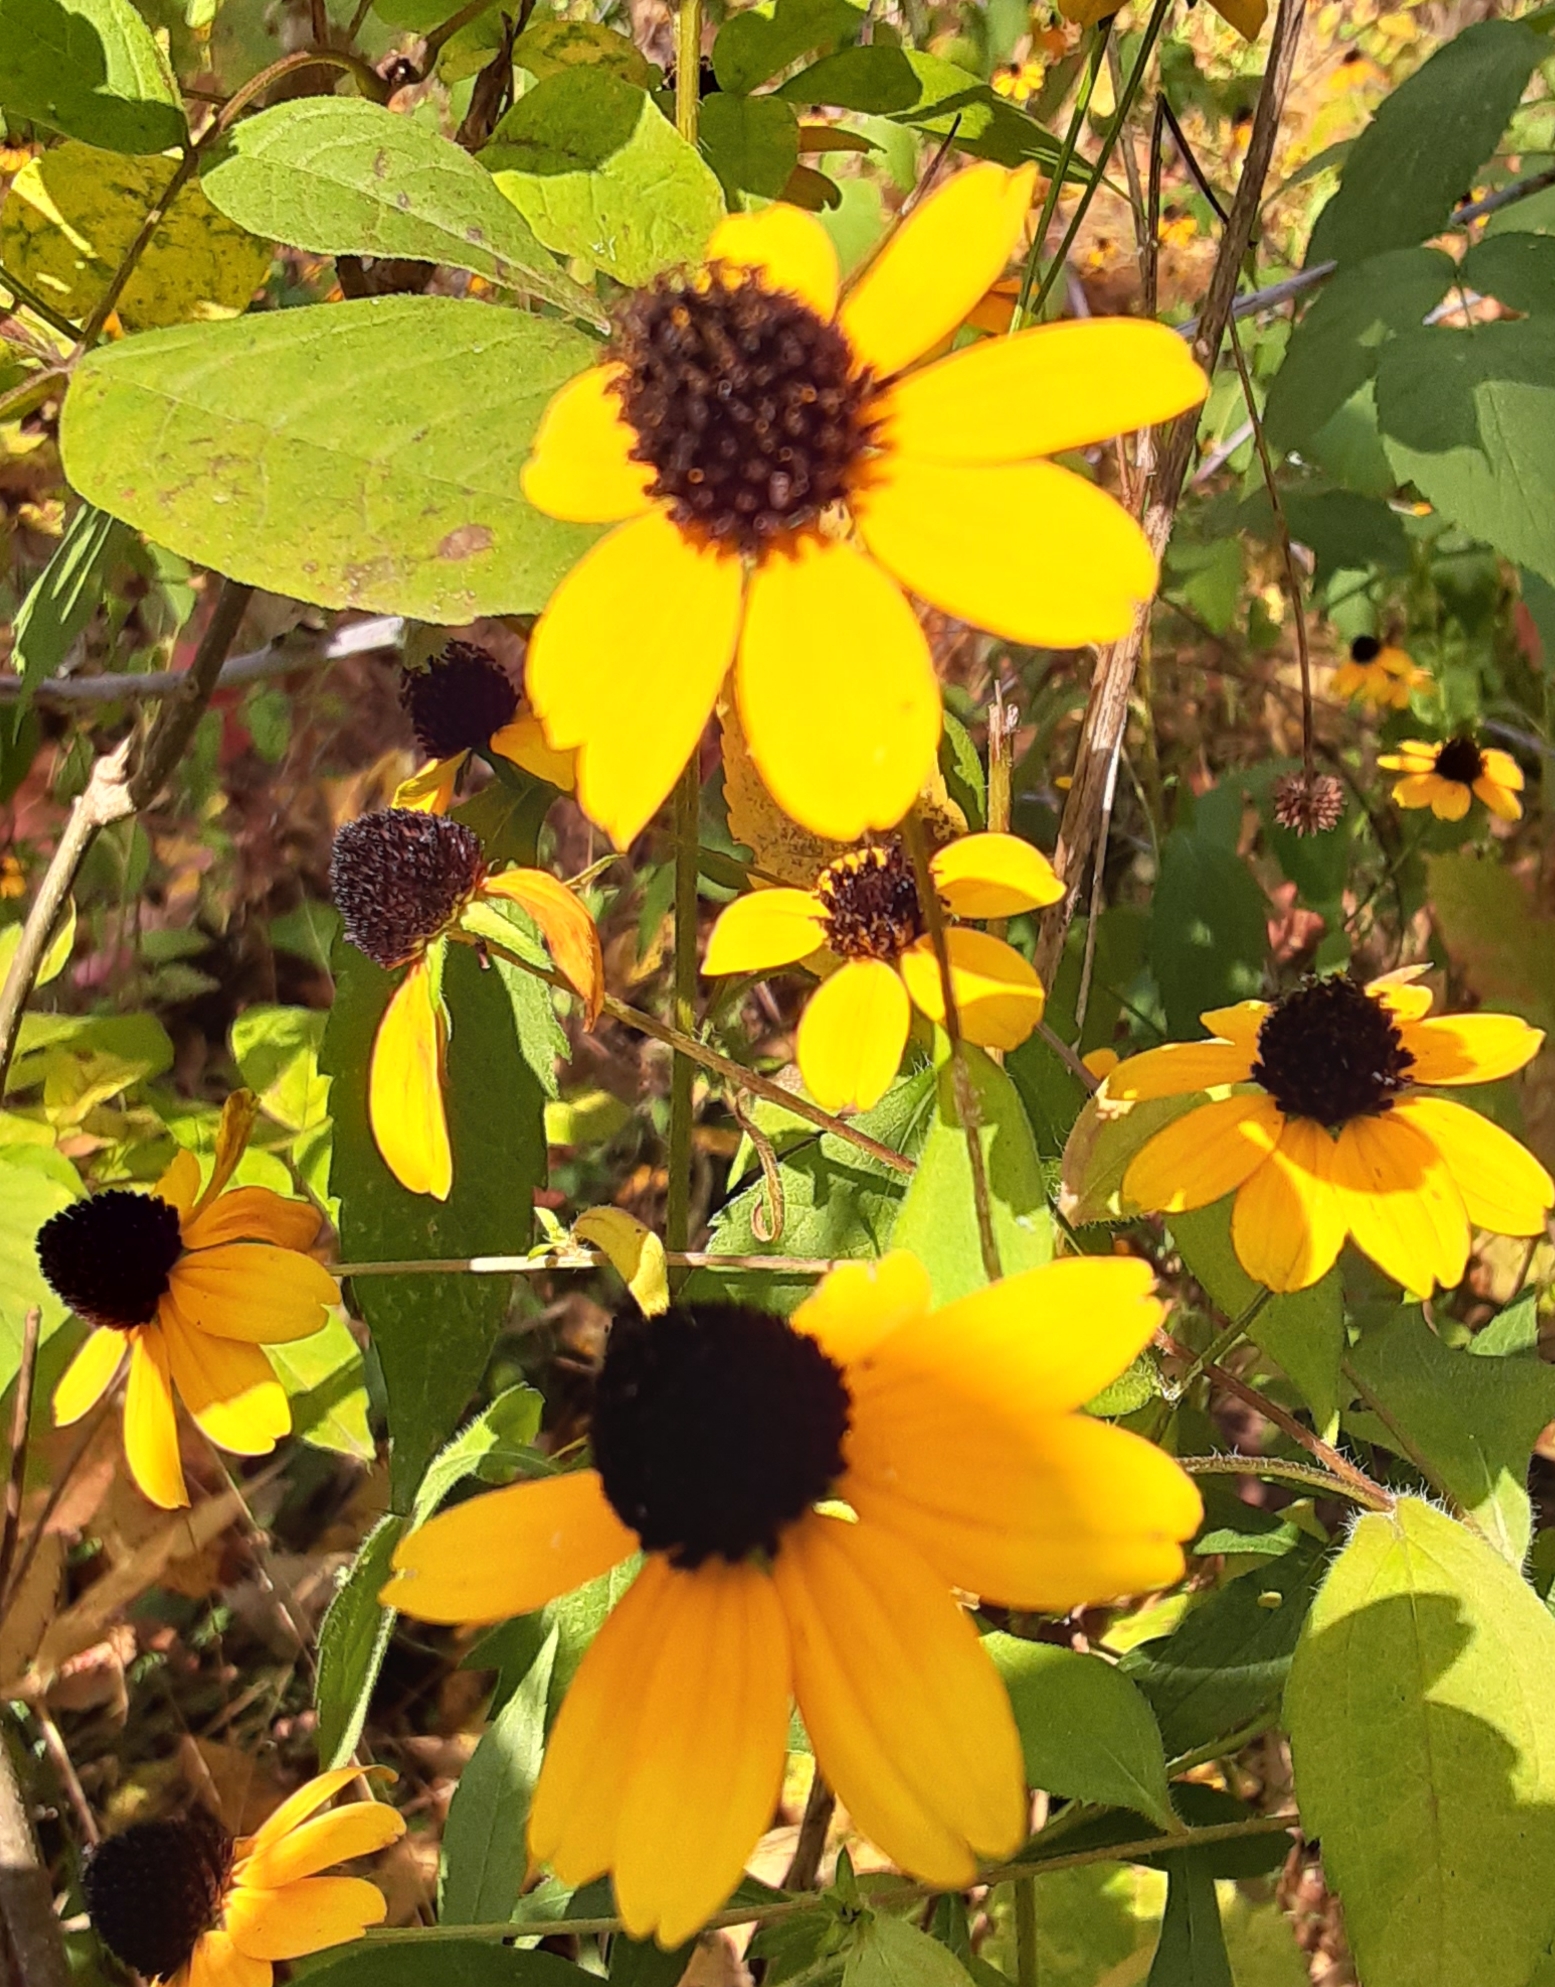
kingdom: Plantae
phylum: Tracheophyta
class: Magnoliopsida
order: Asterales
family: Asteraceae
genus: Rudbeckia
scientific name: Rudbeckia triloba
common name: Thin-leaved coneflower
